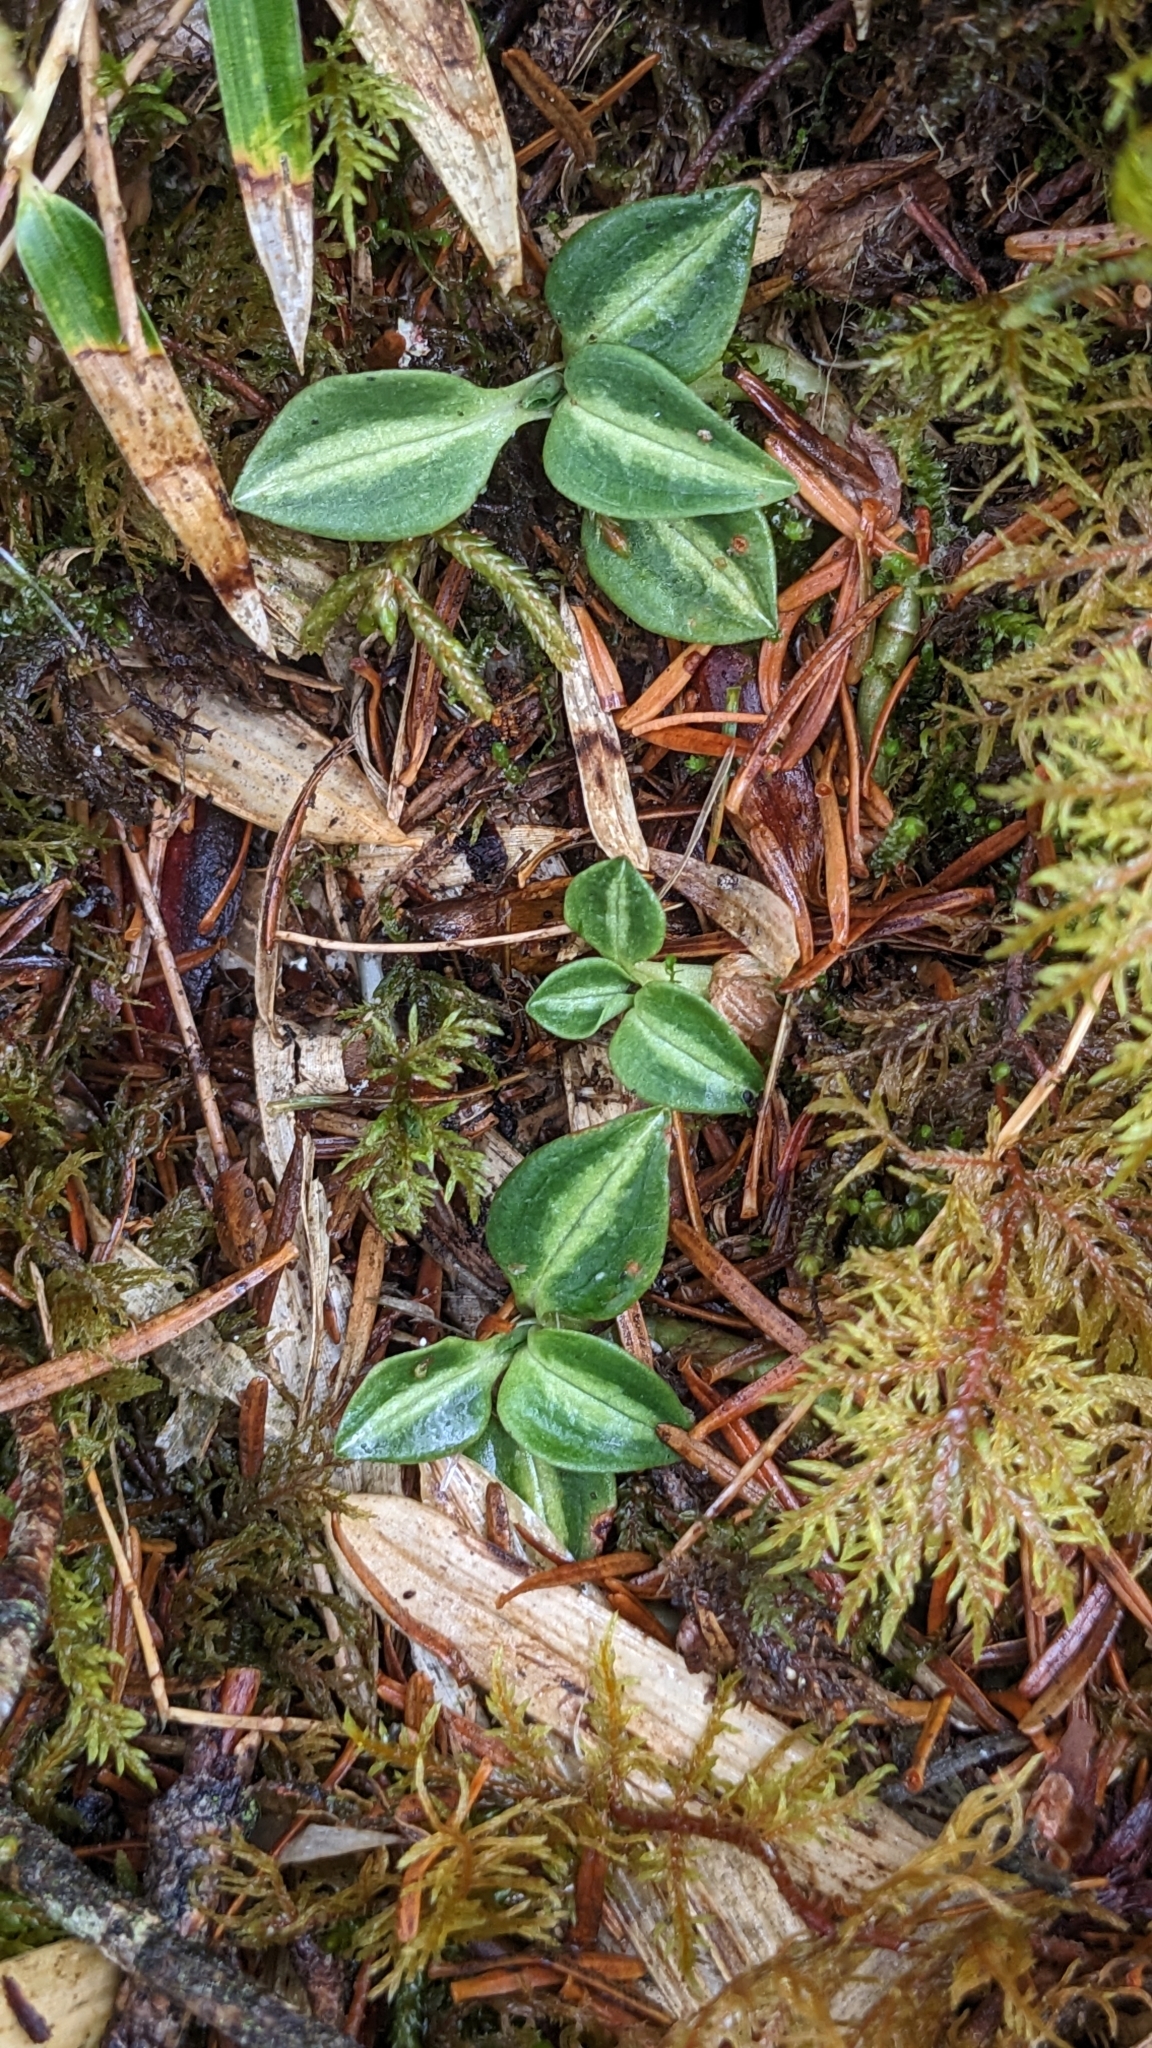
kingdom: Plantae
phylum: Tracheophyta
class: Liliopsida
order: Asparagales
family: Orchidaceae
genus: Goodyera
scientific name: Goodyera nankoensis
